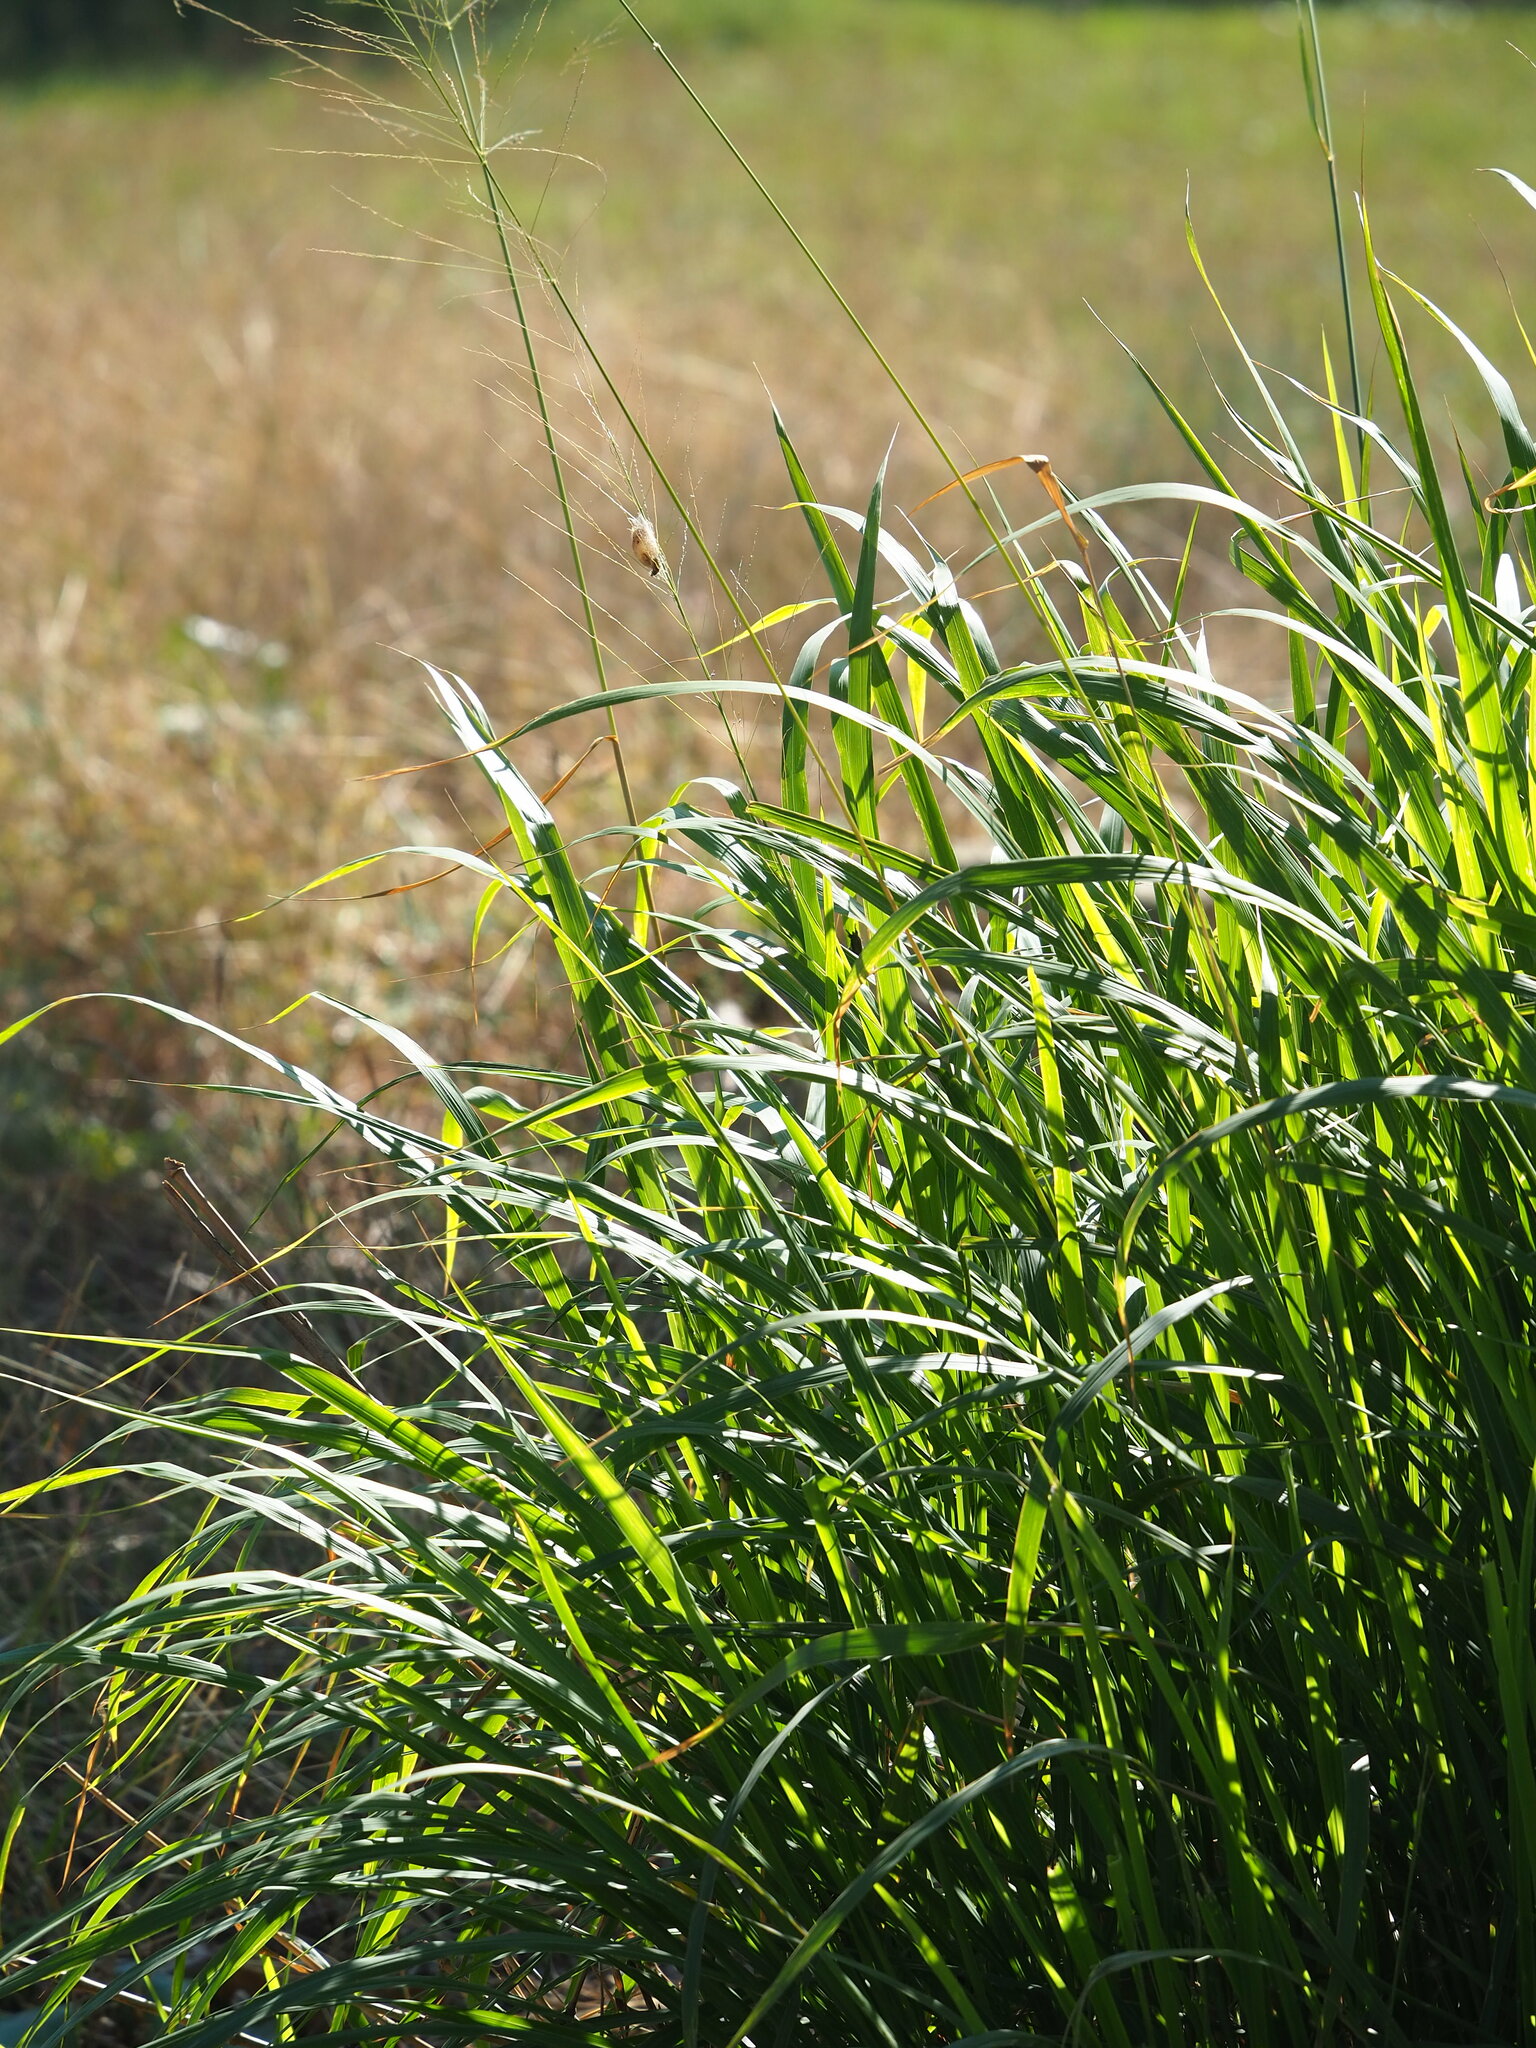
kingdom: Plantae
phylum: Tracheophyta
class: Liliopsida
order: Poales
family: Poaceae
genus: Megathyrsus
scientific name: Megathyrsus maximus
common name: Guineagrass
